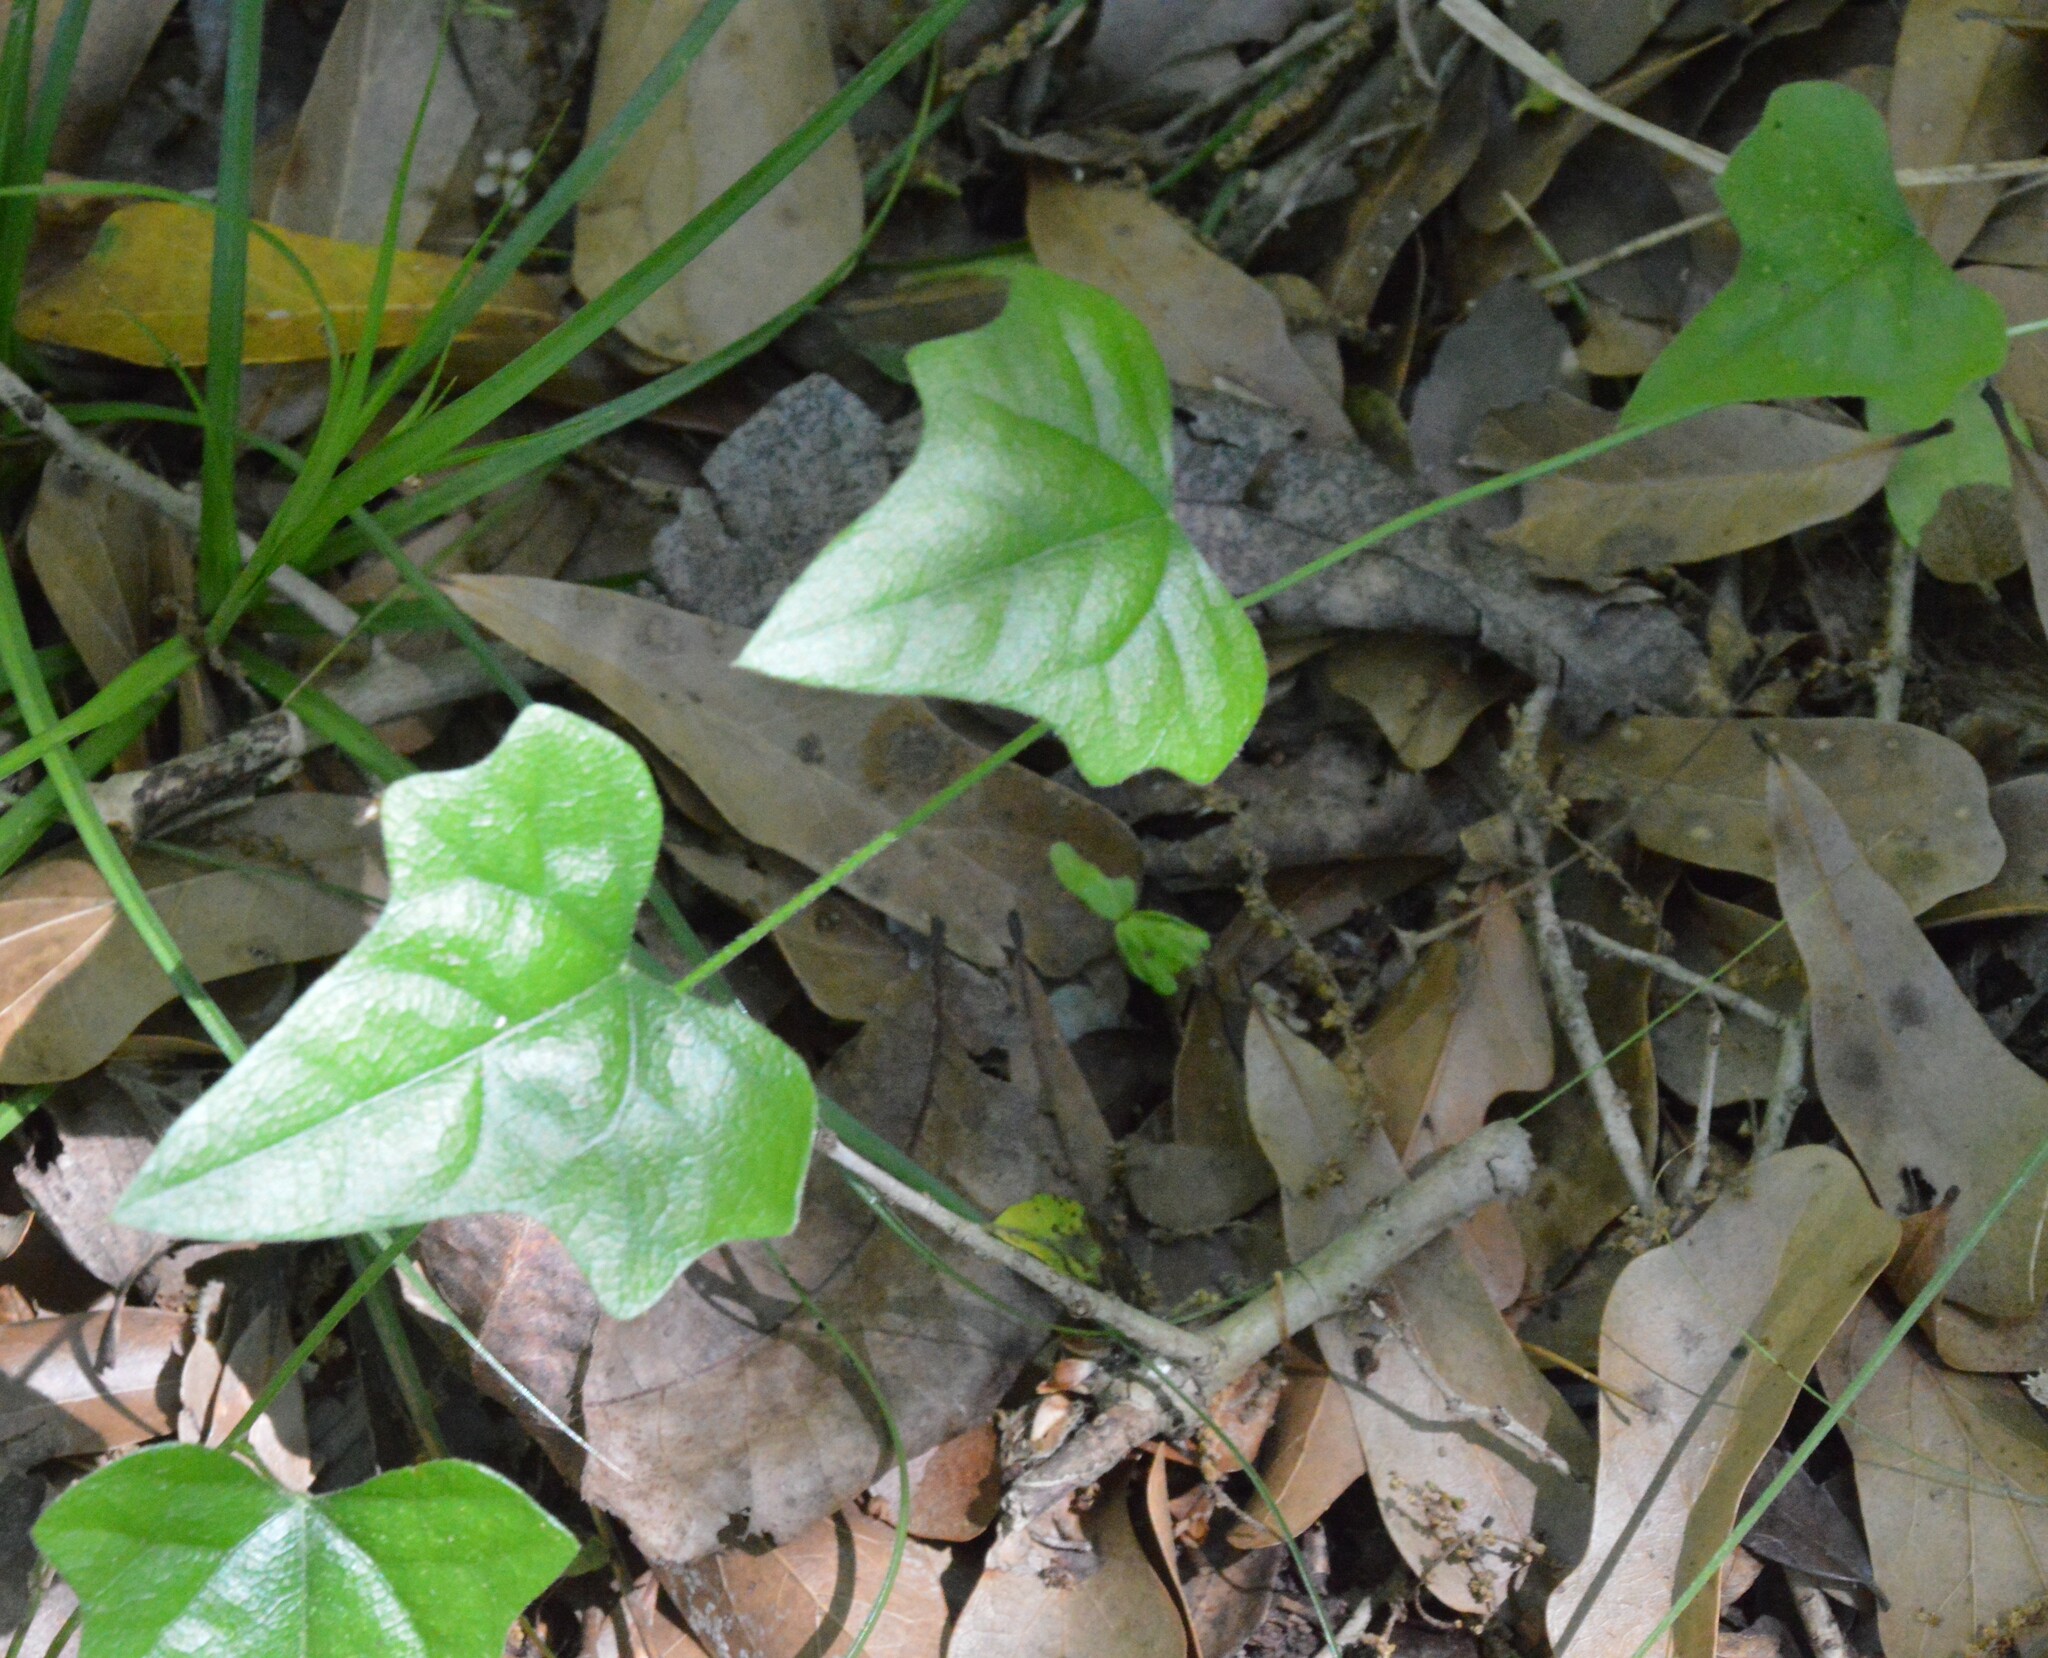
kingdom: Plantae
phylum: Tracheophyta
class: Magnoliopsida
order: Ranunculales
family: Menispermaceae
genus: Cocculus
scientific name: Cocculus carolinus
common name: Carolina moonseed
